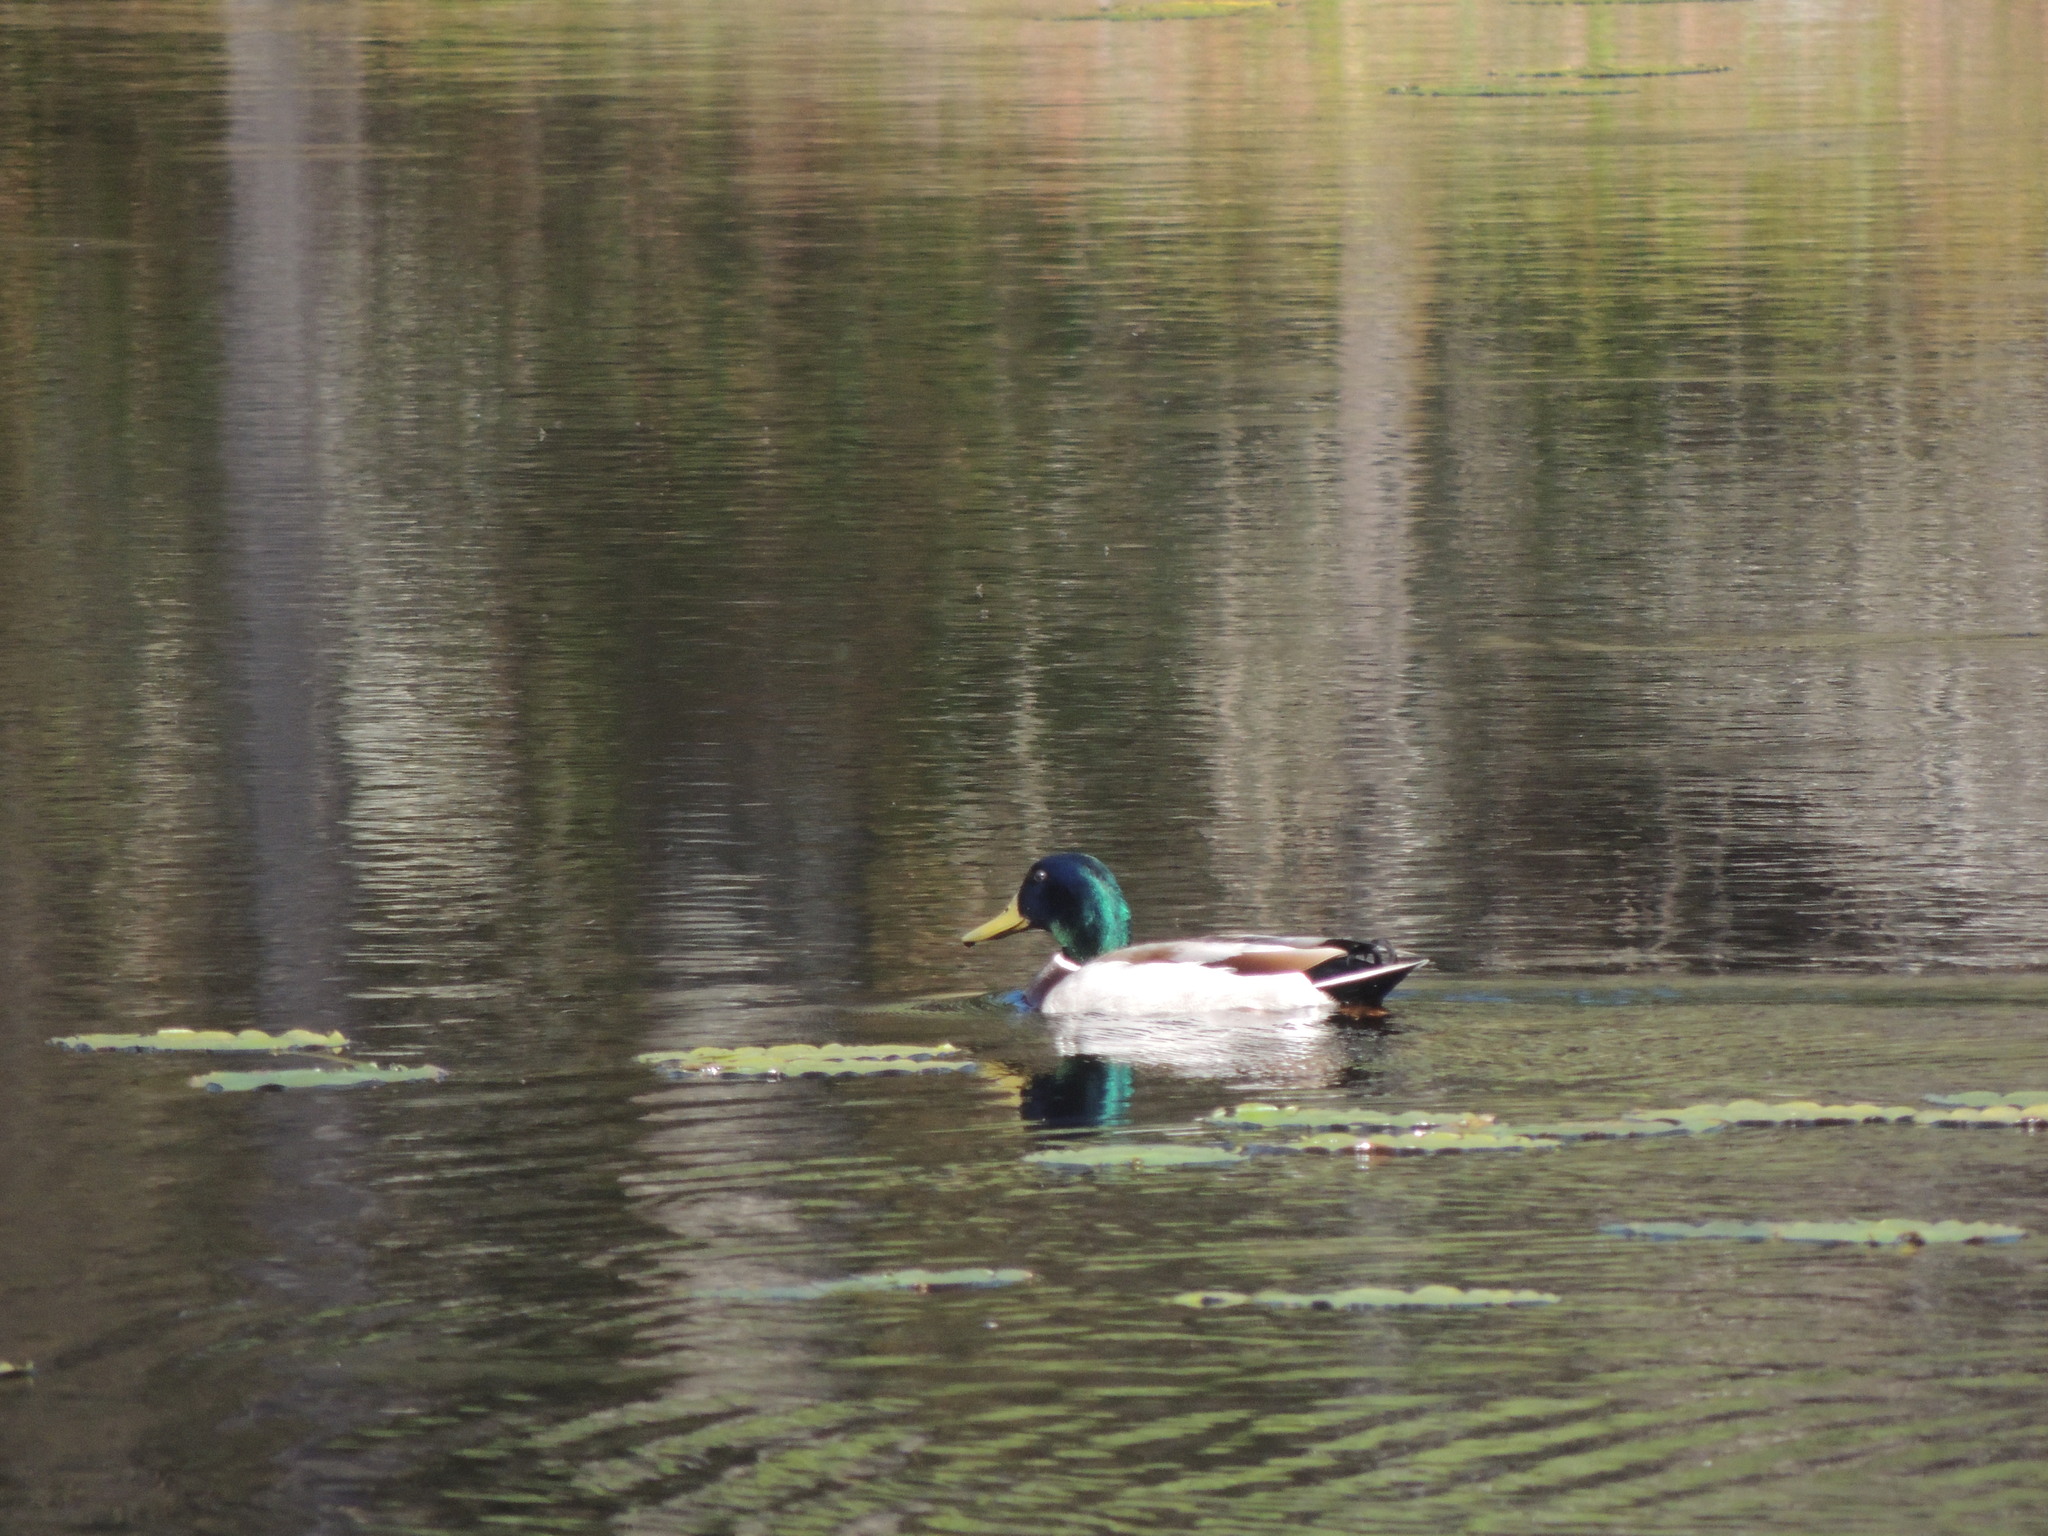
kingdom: Animalia
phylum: Chordata
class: Aves
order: Anseriformes
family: Anatidae
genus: Anas
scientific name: Anas platyrhynchos
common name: Mallard
